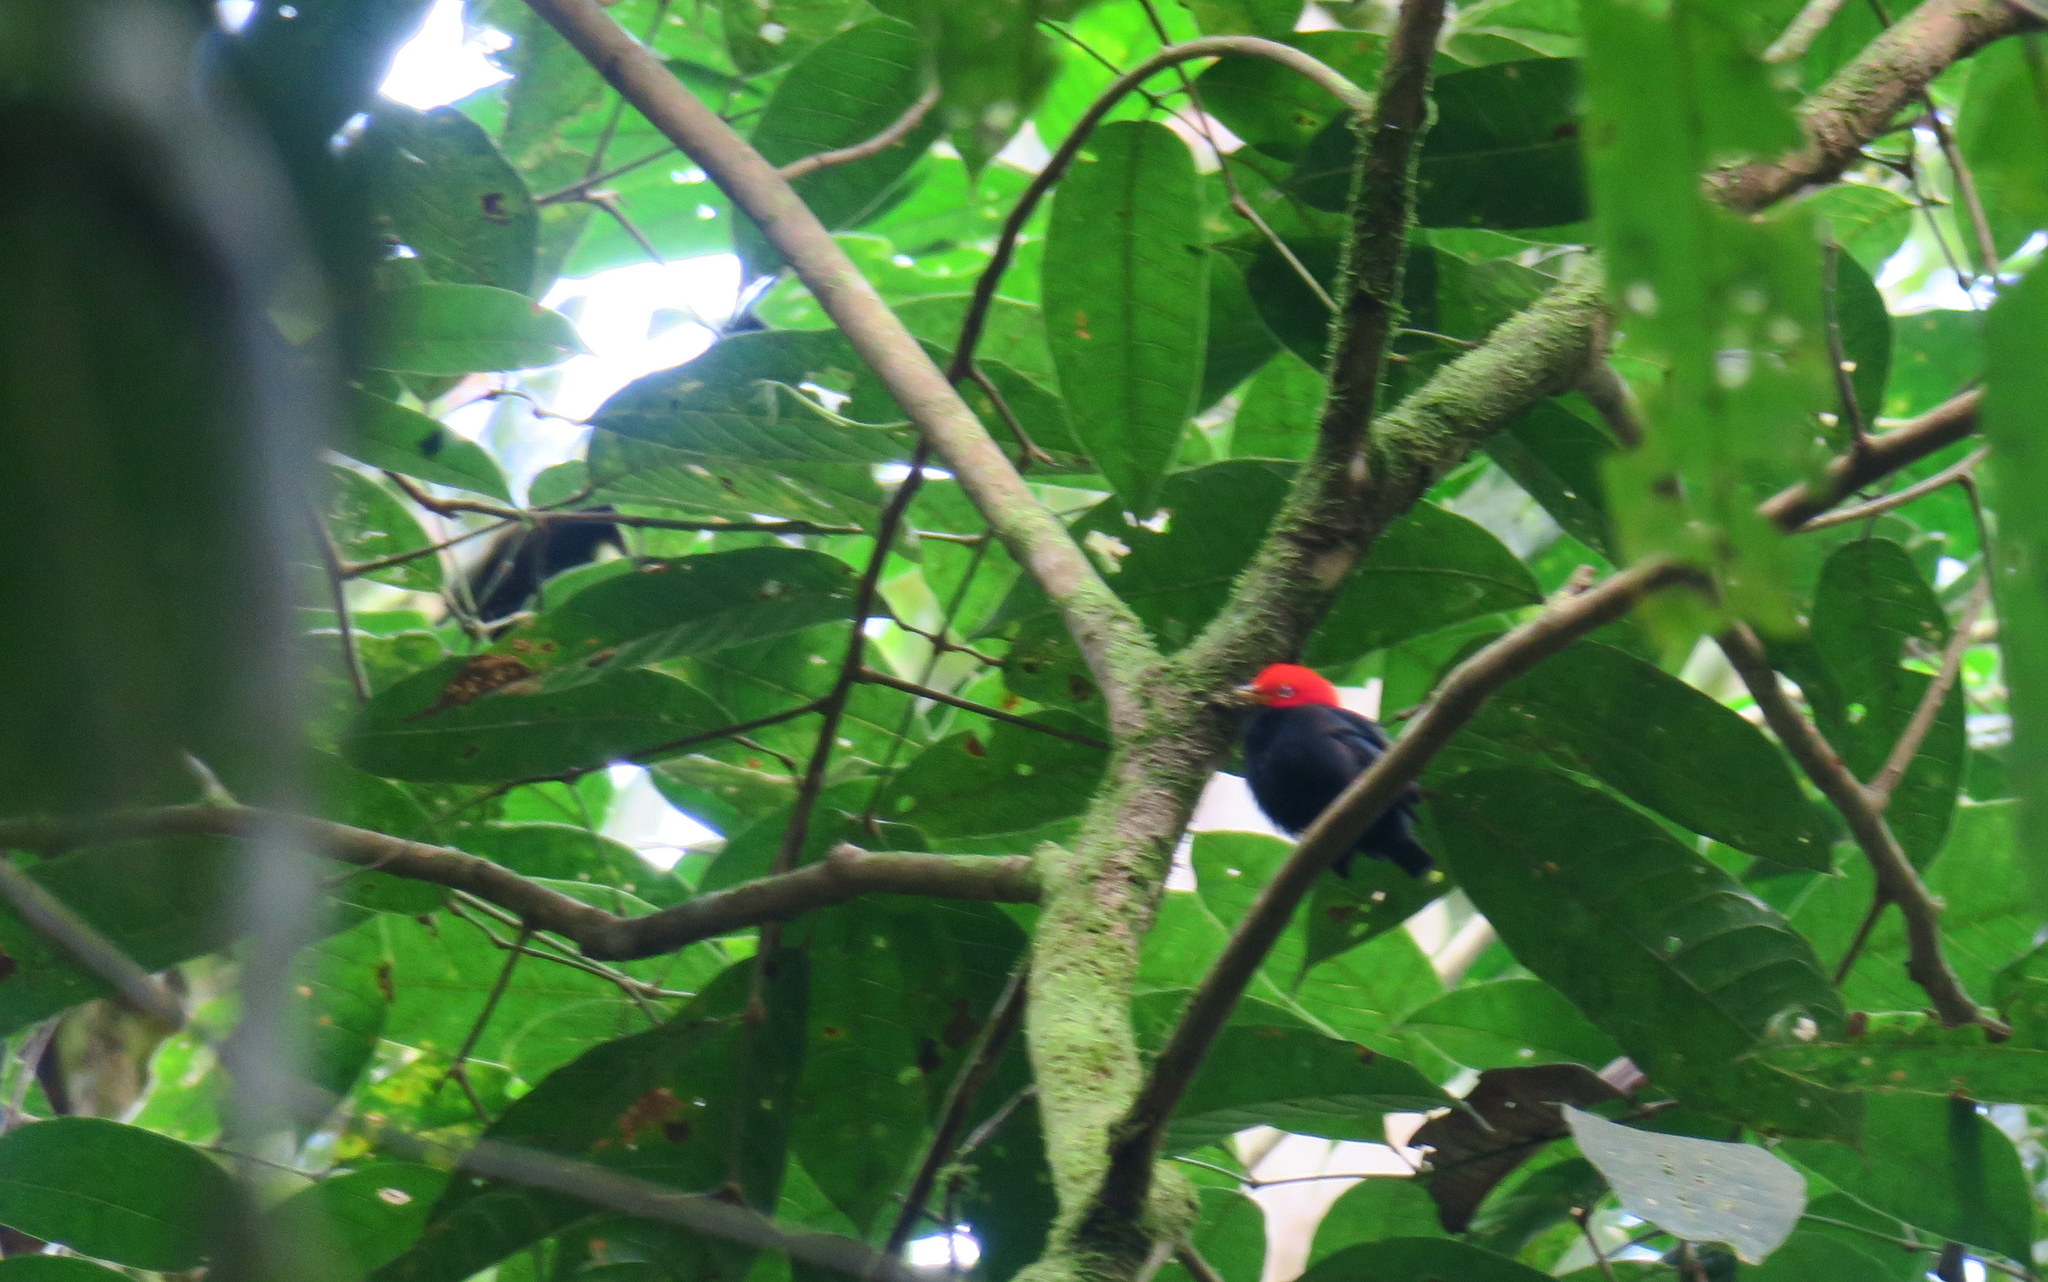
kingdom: Animalia
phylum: Chordata
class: Aves
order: Passeriformes
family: Pipridae
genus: Pipra
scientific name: Pipra mentalis
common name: Red-capped manakin
